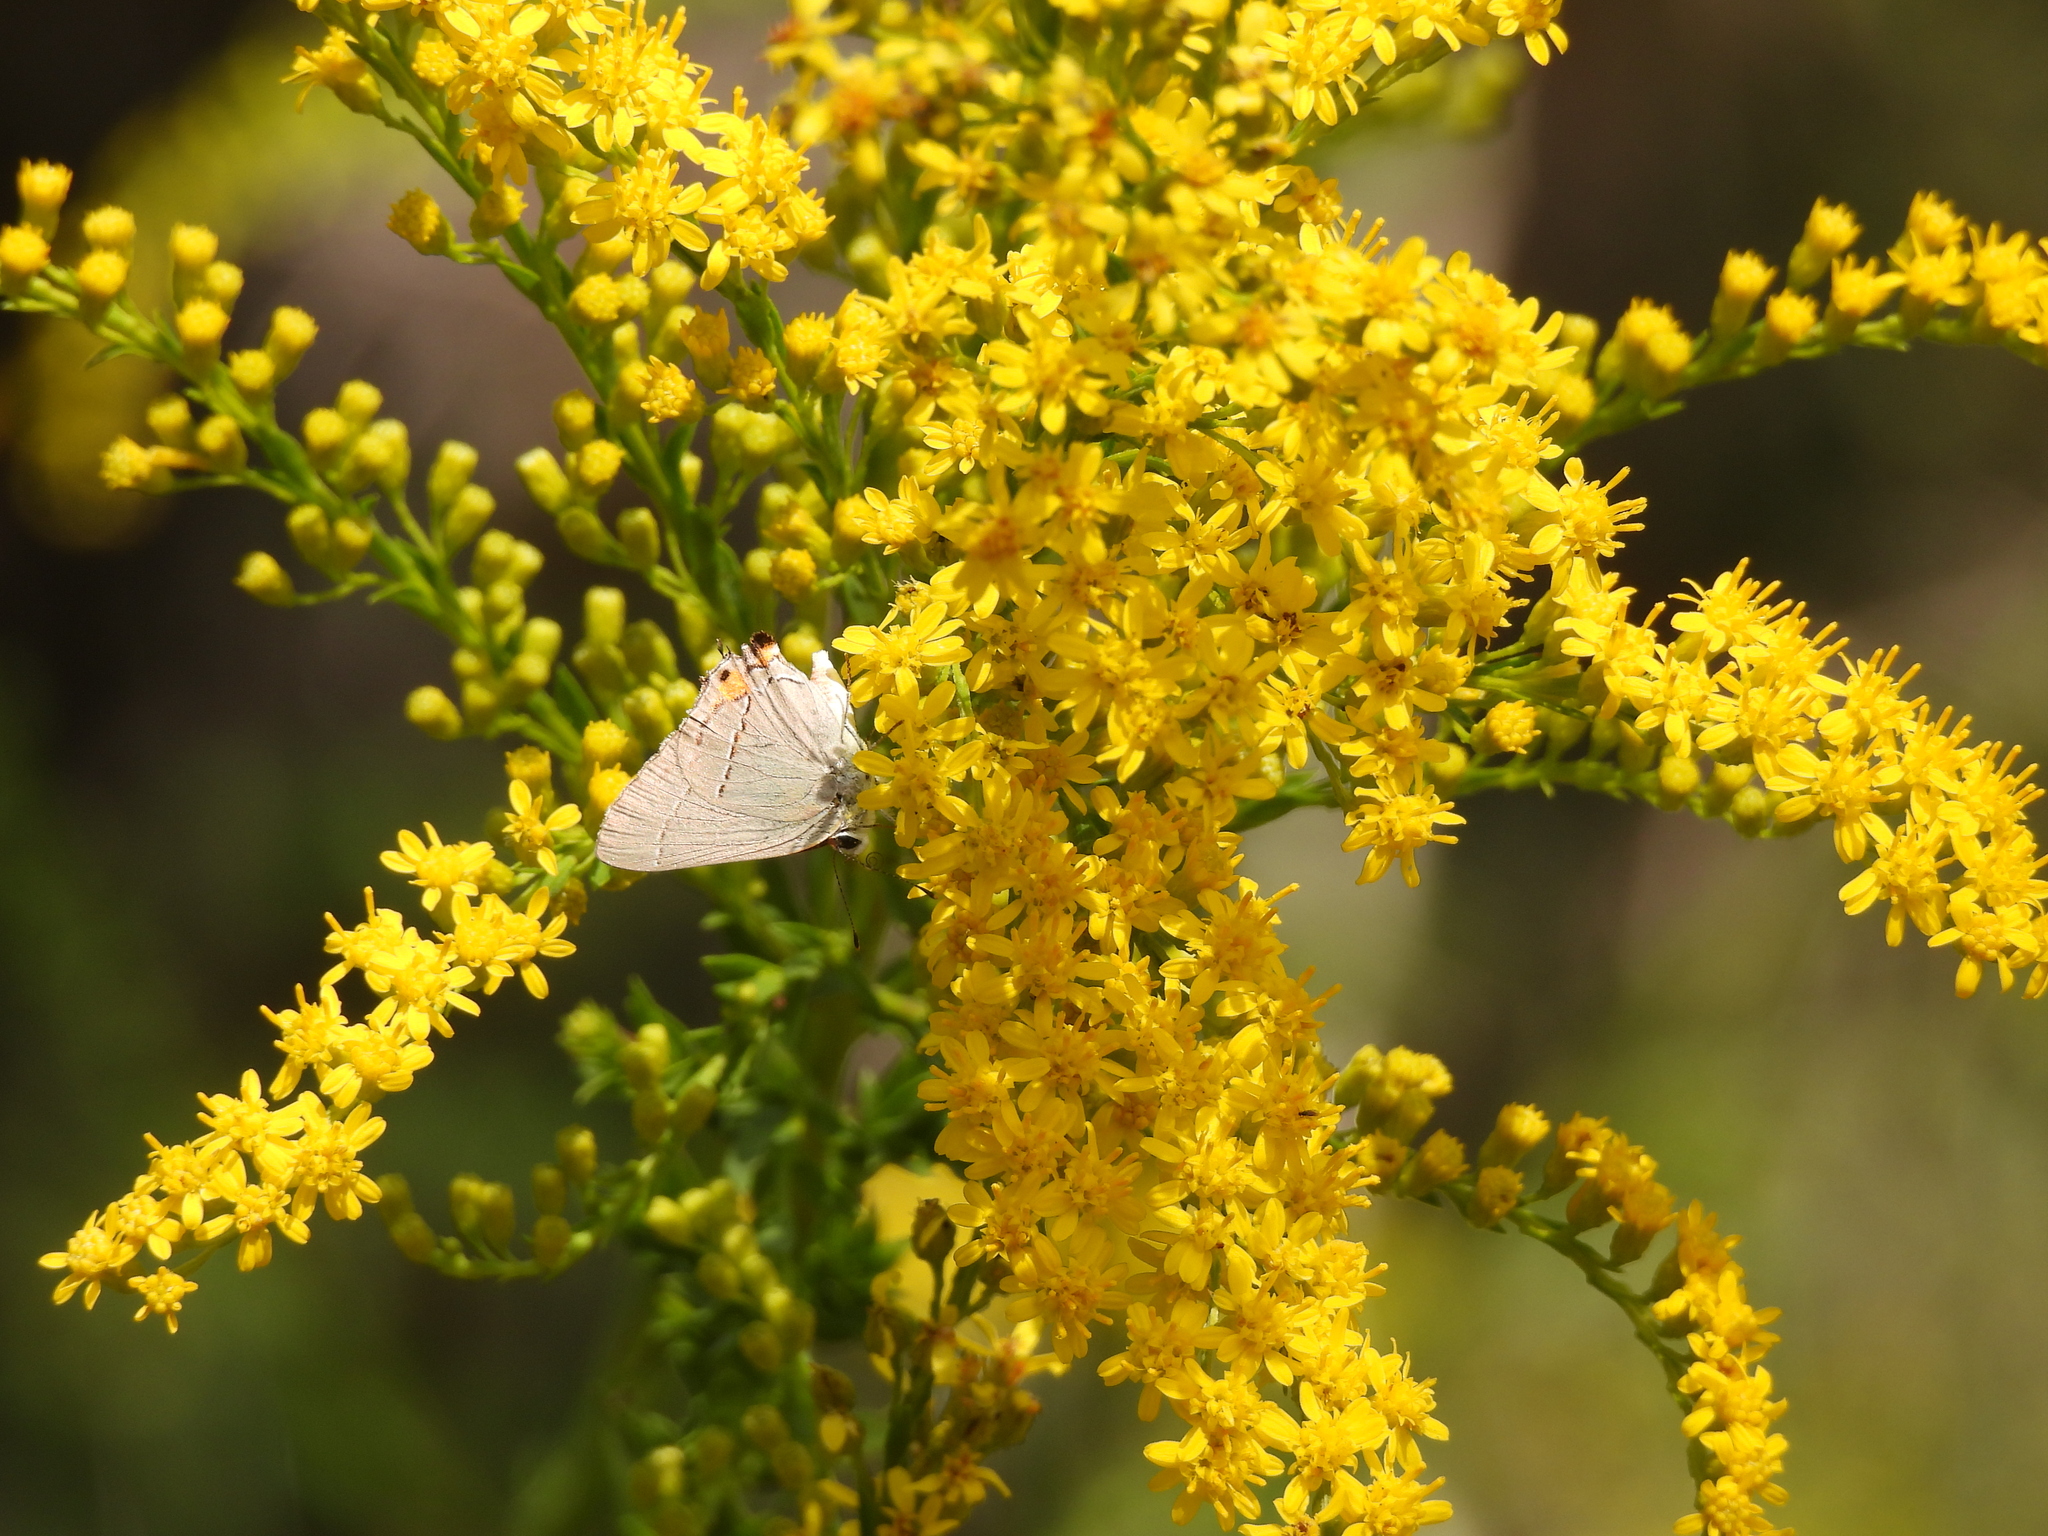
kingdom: Animalia
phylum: Arthropoda
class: Insecta
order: Lepidoptera
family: Lycaenidae
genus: Strymon
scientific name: Strymon melinus
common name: Gray hairstreak
